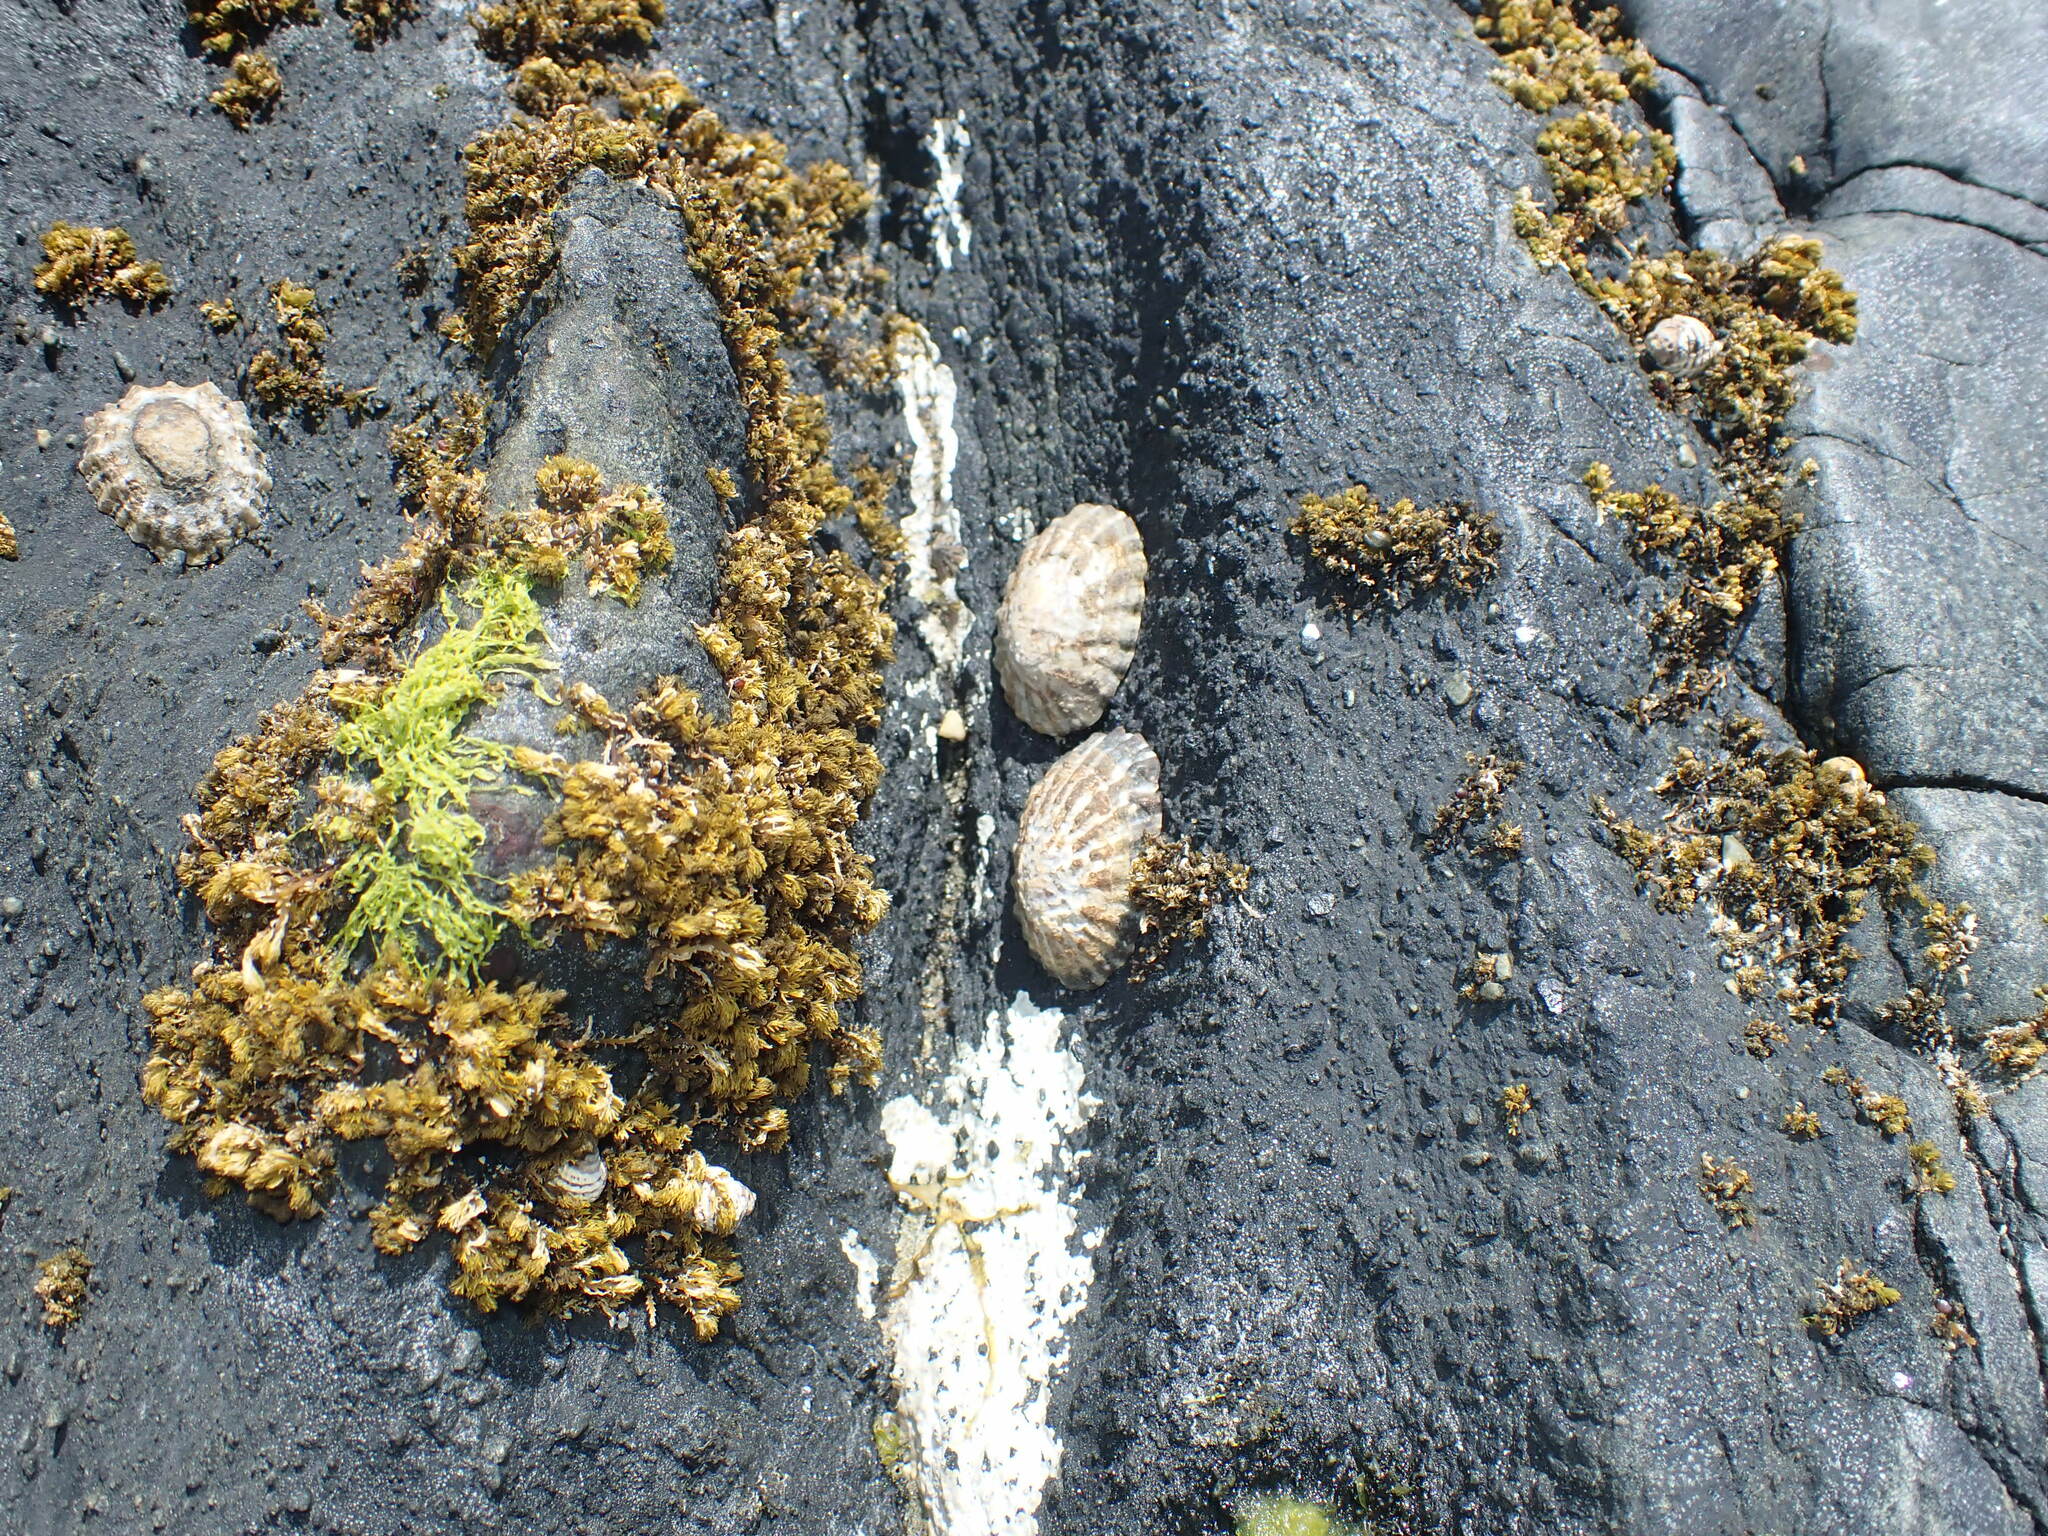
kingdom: Animalia
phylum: Mollusca
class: Gastropoda
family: Nacellidae
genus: Cellana
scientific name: Cellana strigilis
